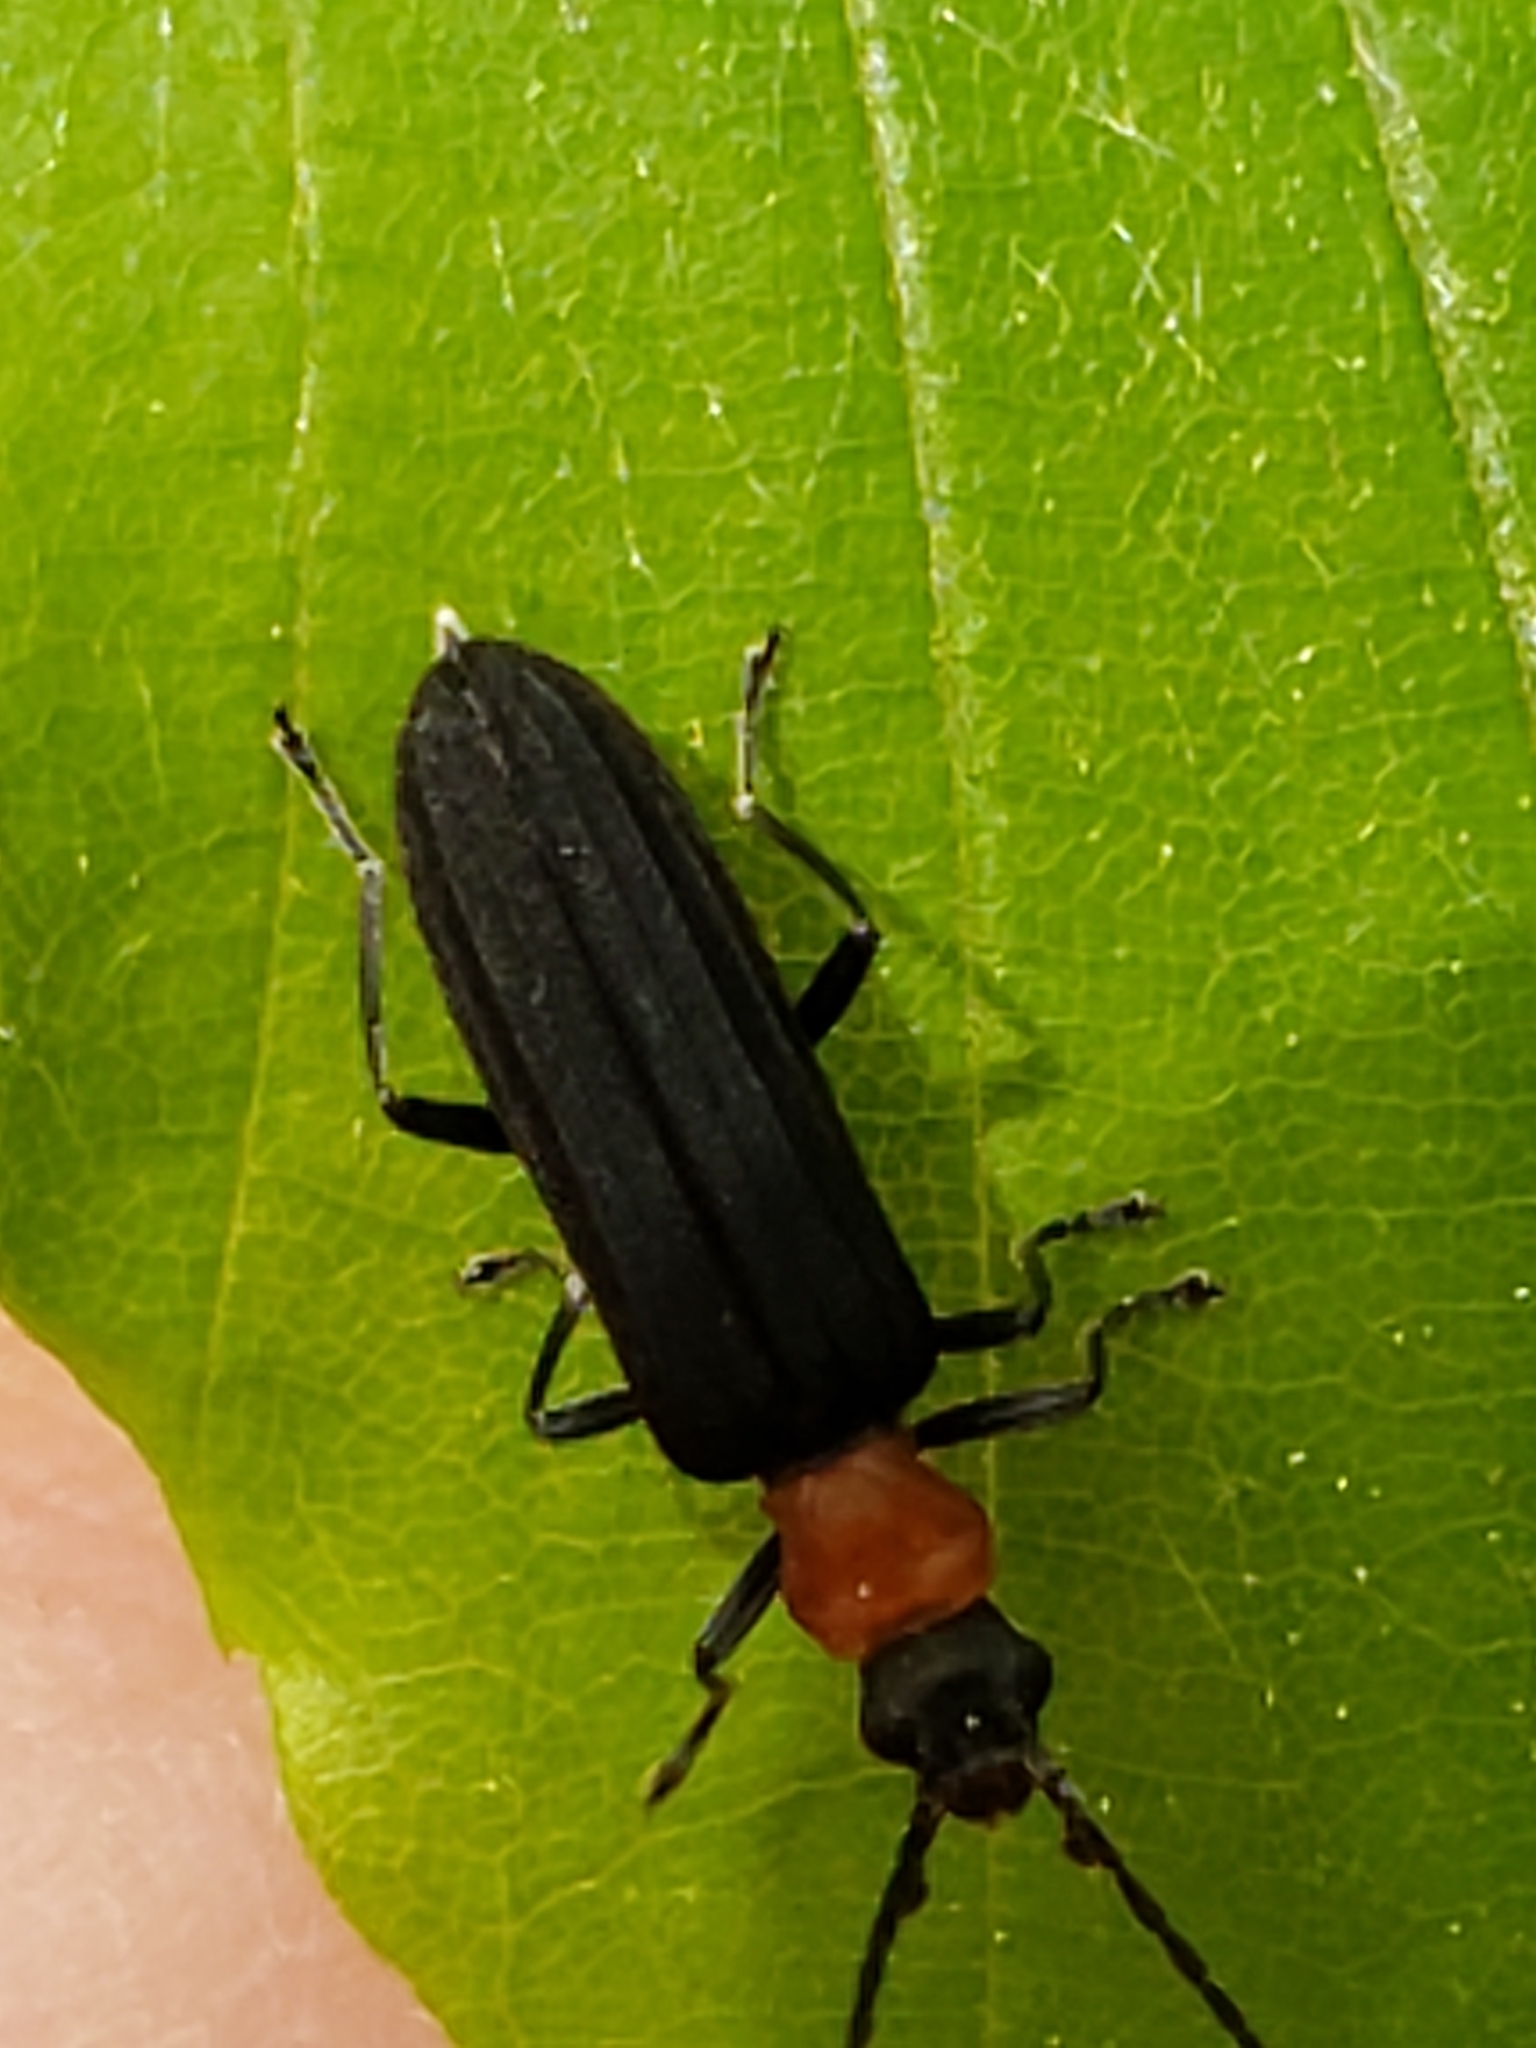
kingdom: Animalia
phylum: Arthropoda
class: Insecta
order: Coleoptera
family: Oedemeridae
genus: Ischnomera
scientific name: Ischnomera
